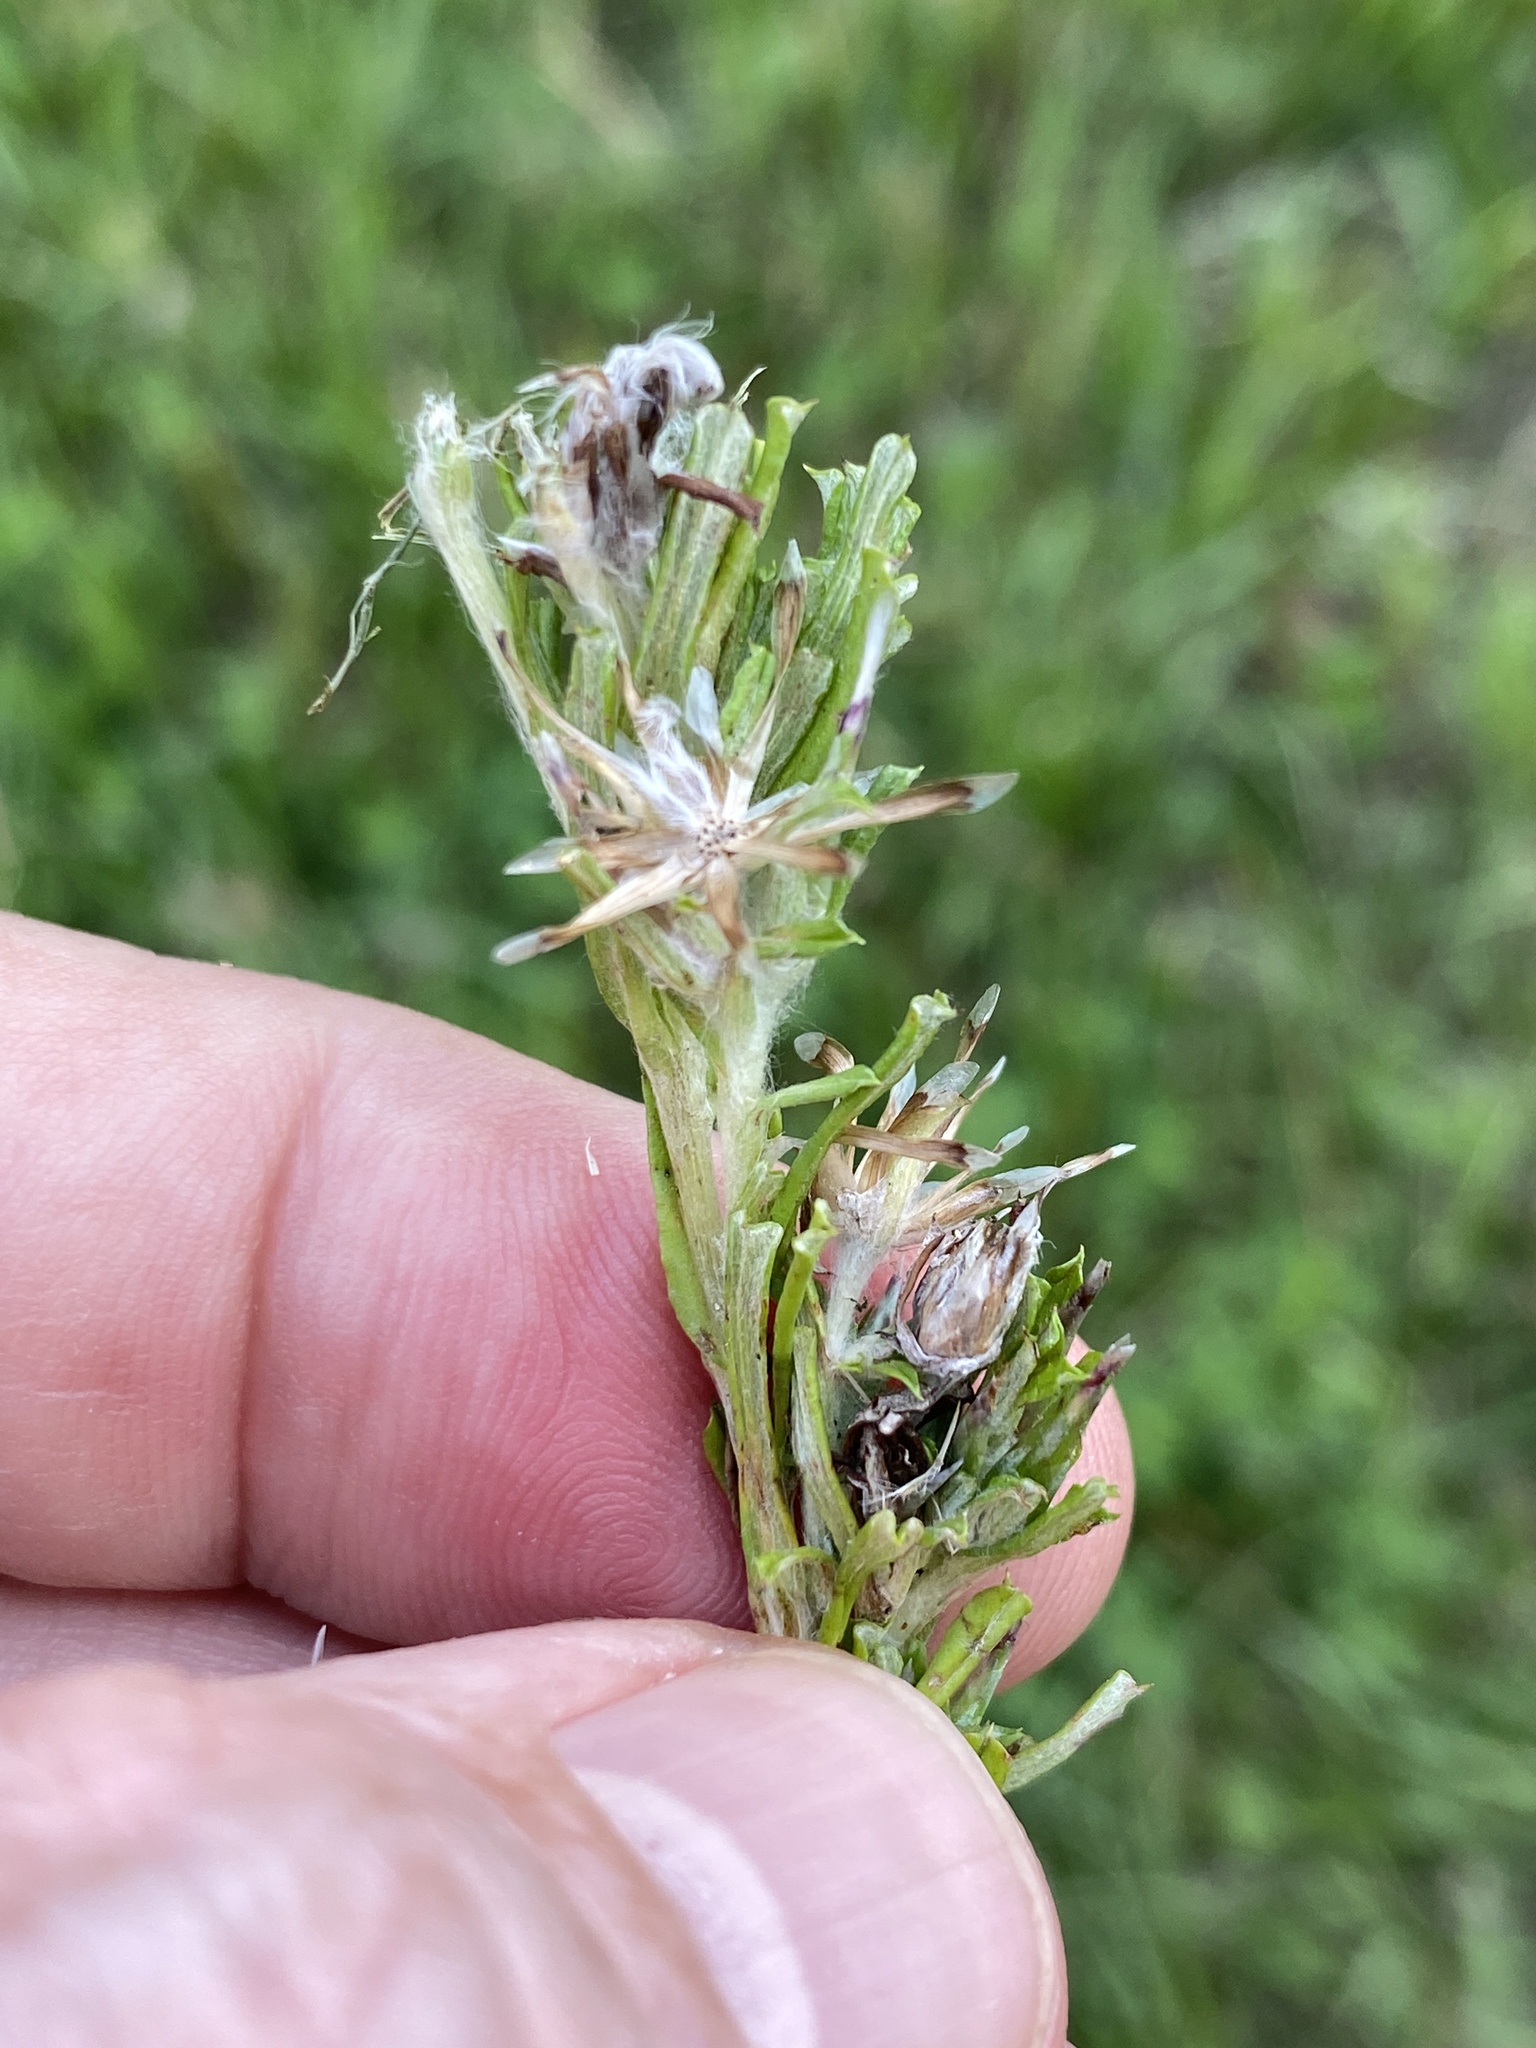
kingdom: Plantae
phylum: Tracheophyta
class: Magnoliopsida
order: Asterales
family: Asteraceae
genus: Facelis
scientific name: Facelis retusa
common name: Annual trampweed
